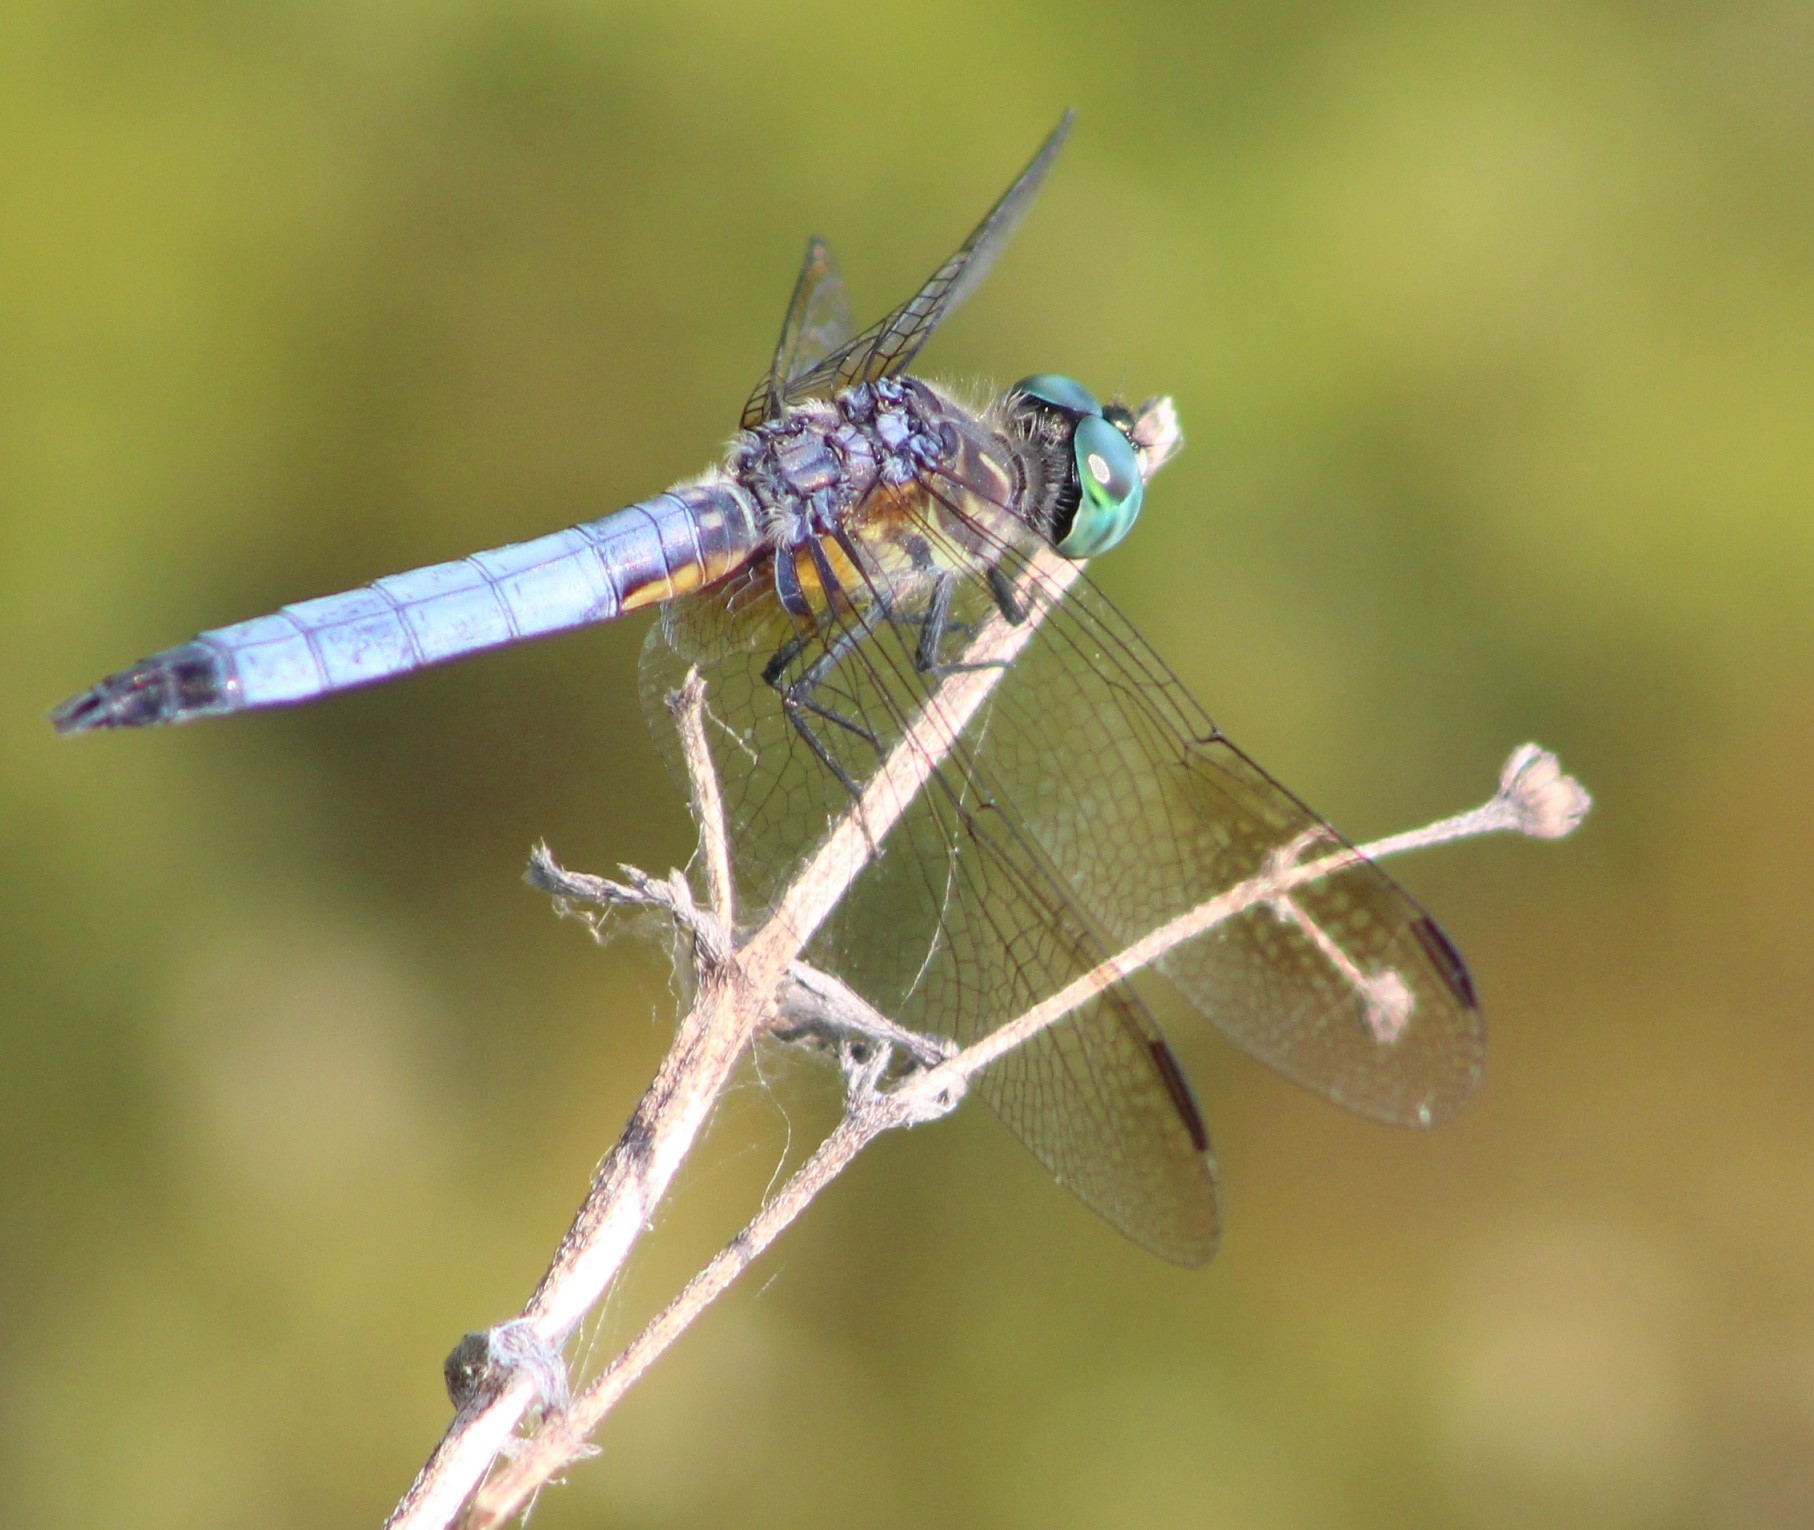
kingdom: Animalia
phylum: Arthropoda
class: Insecta
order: Odonata
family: Libellulidae
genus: Pachydiplax
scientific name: Pachydiplax longipennis
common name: Blue dasher
